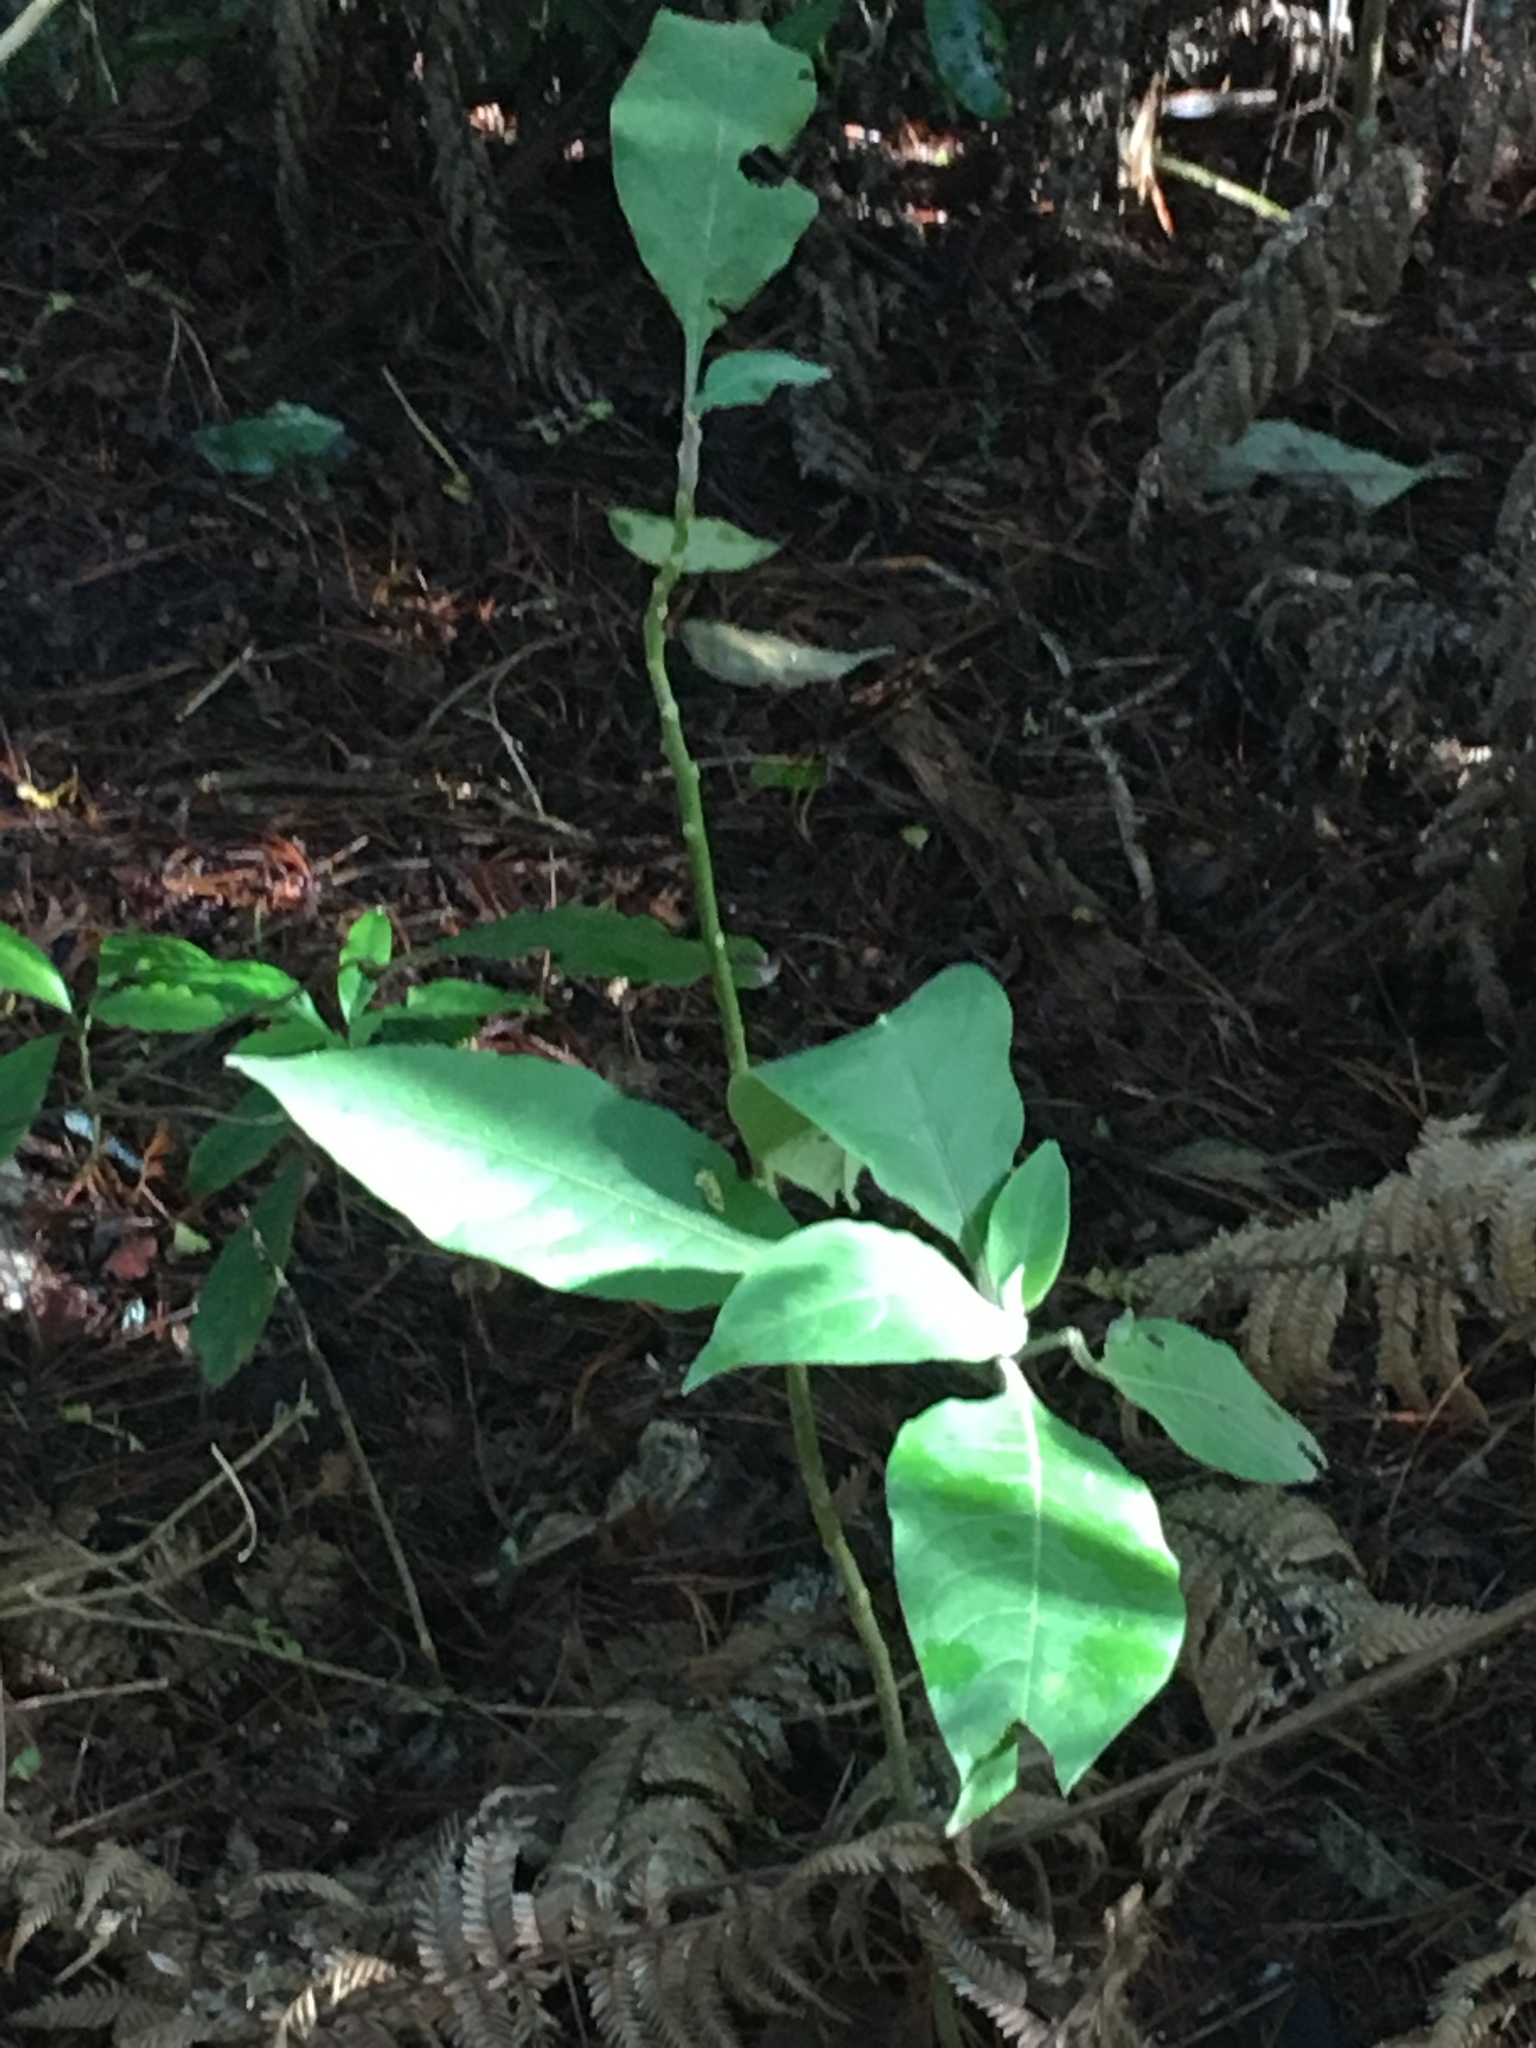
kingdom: Plantae
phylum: Tracheophyta
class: Magnoliopsida
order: Solanales
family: Solanaceae
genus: Solanum
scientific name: Solanum mauritianum
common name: Earleaf nightshade
